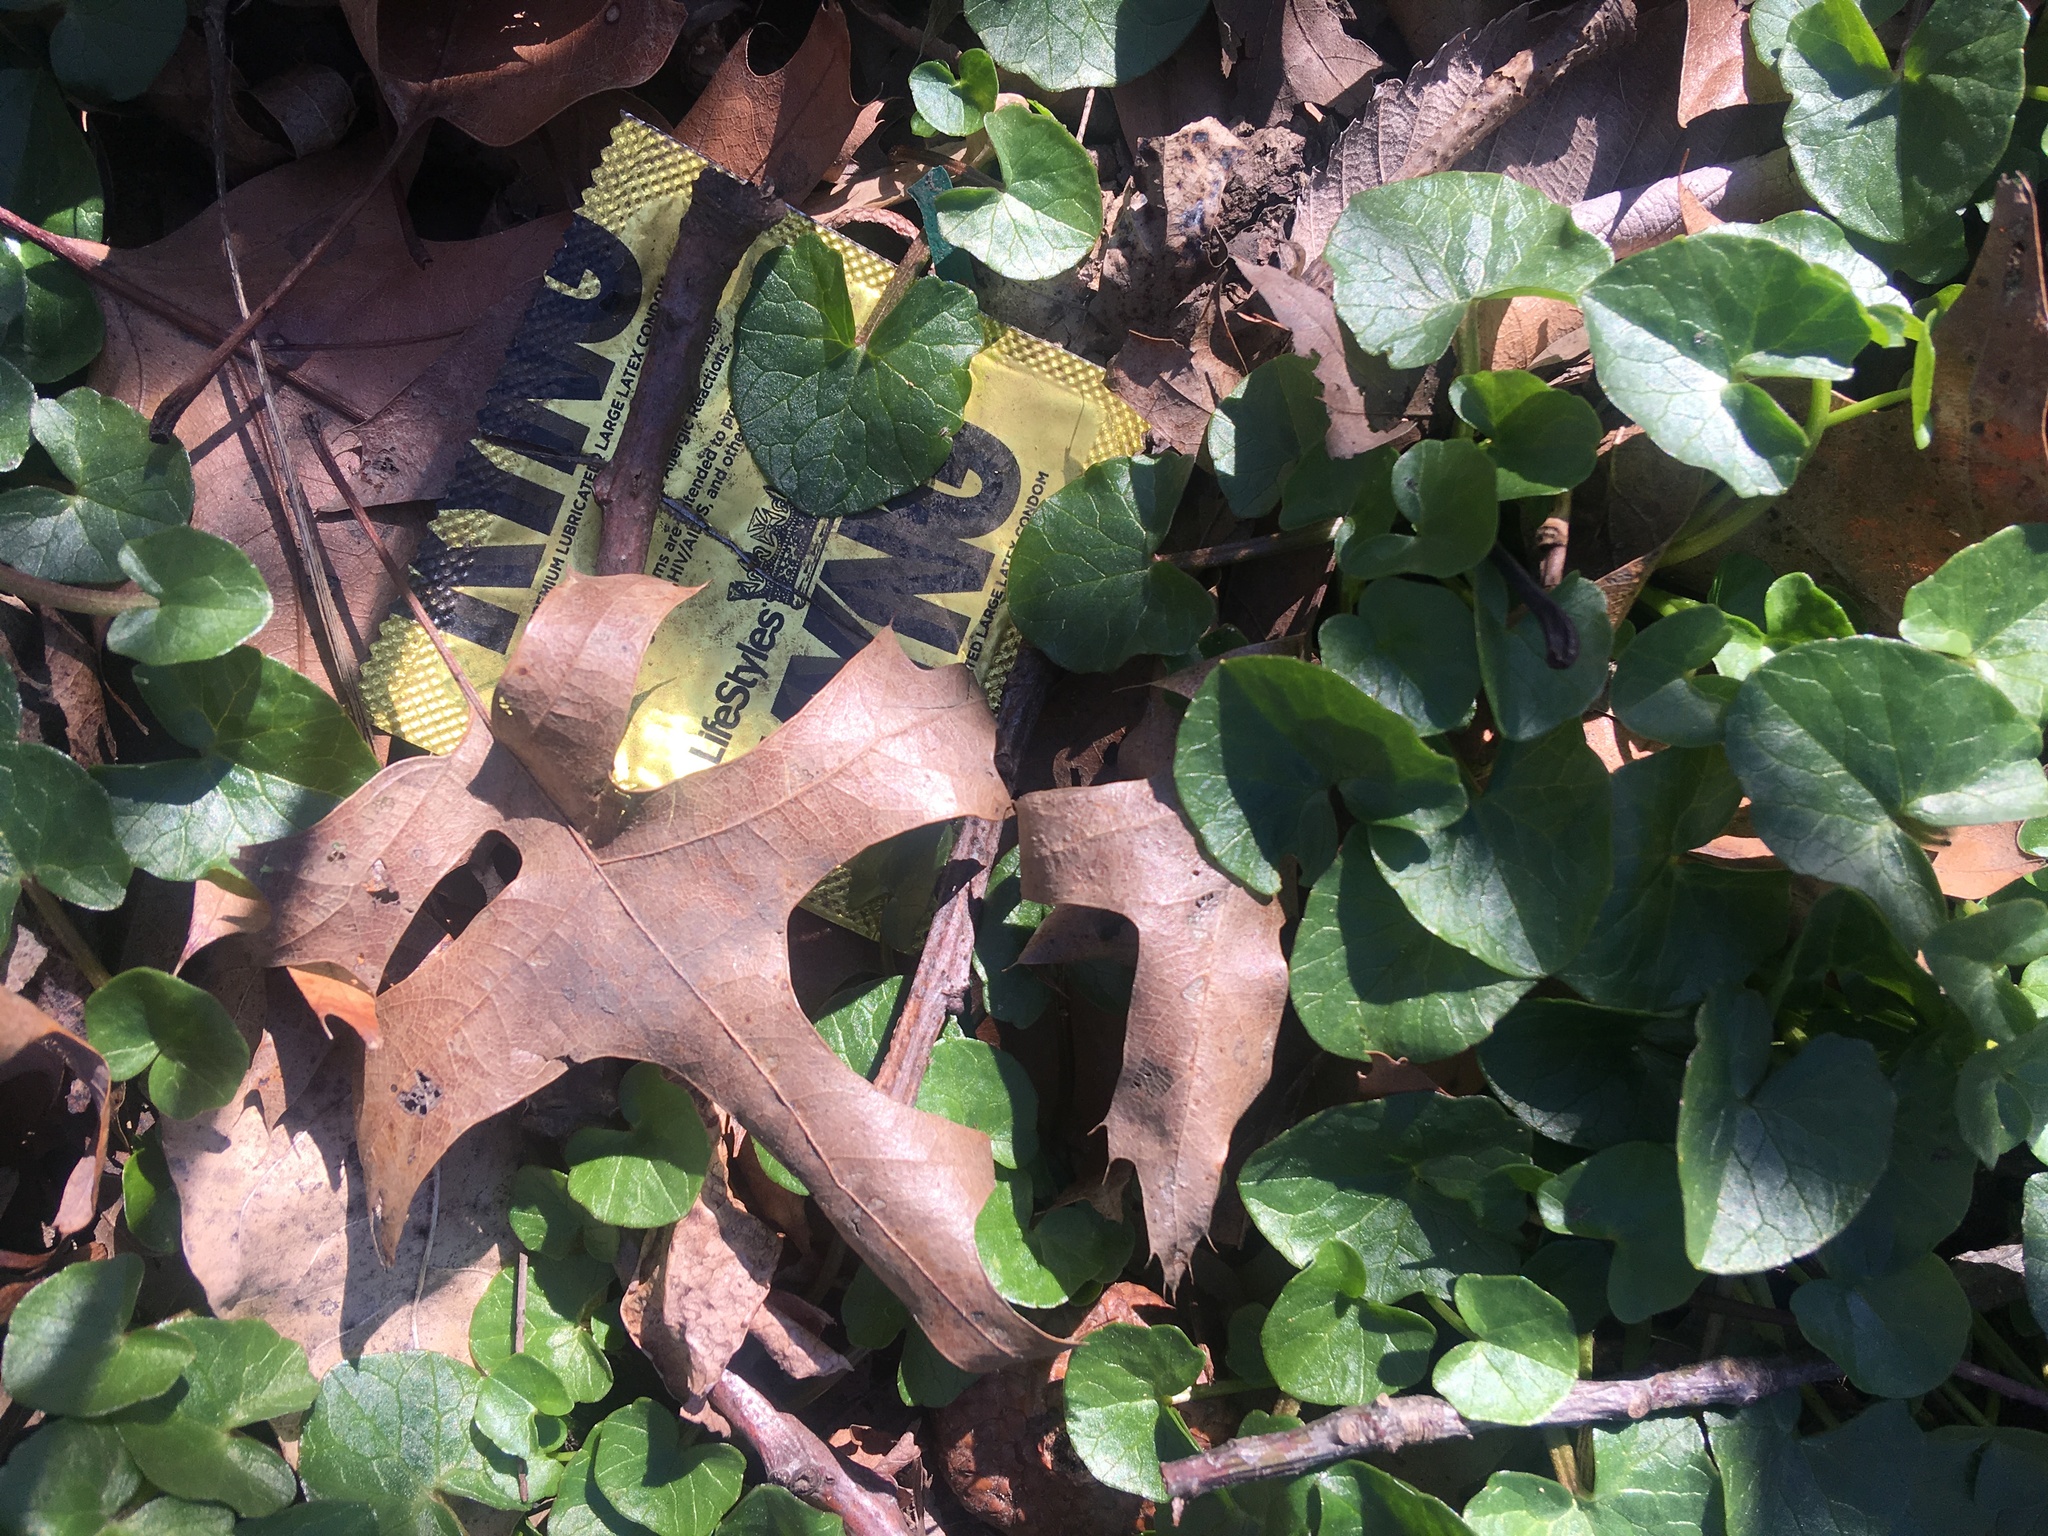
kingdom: Plantae
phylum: Tracheophyta
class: Magnoliopsida
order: Ranunculales
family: Ranunculaceae
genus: Ficaria
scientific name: Ficaria verna
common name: Lesser celandine
